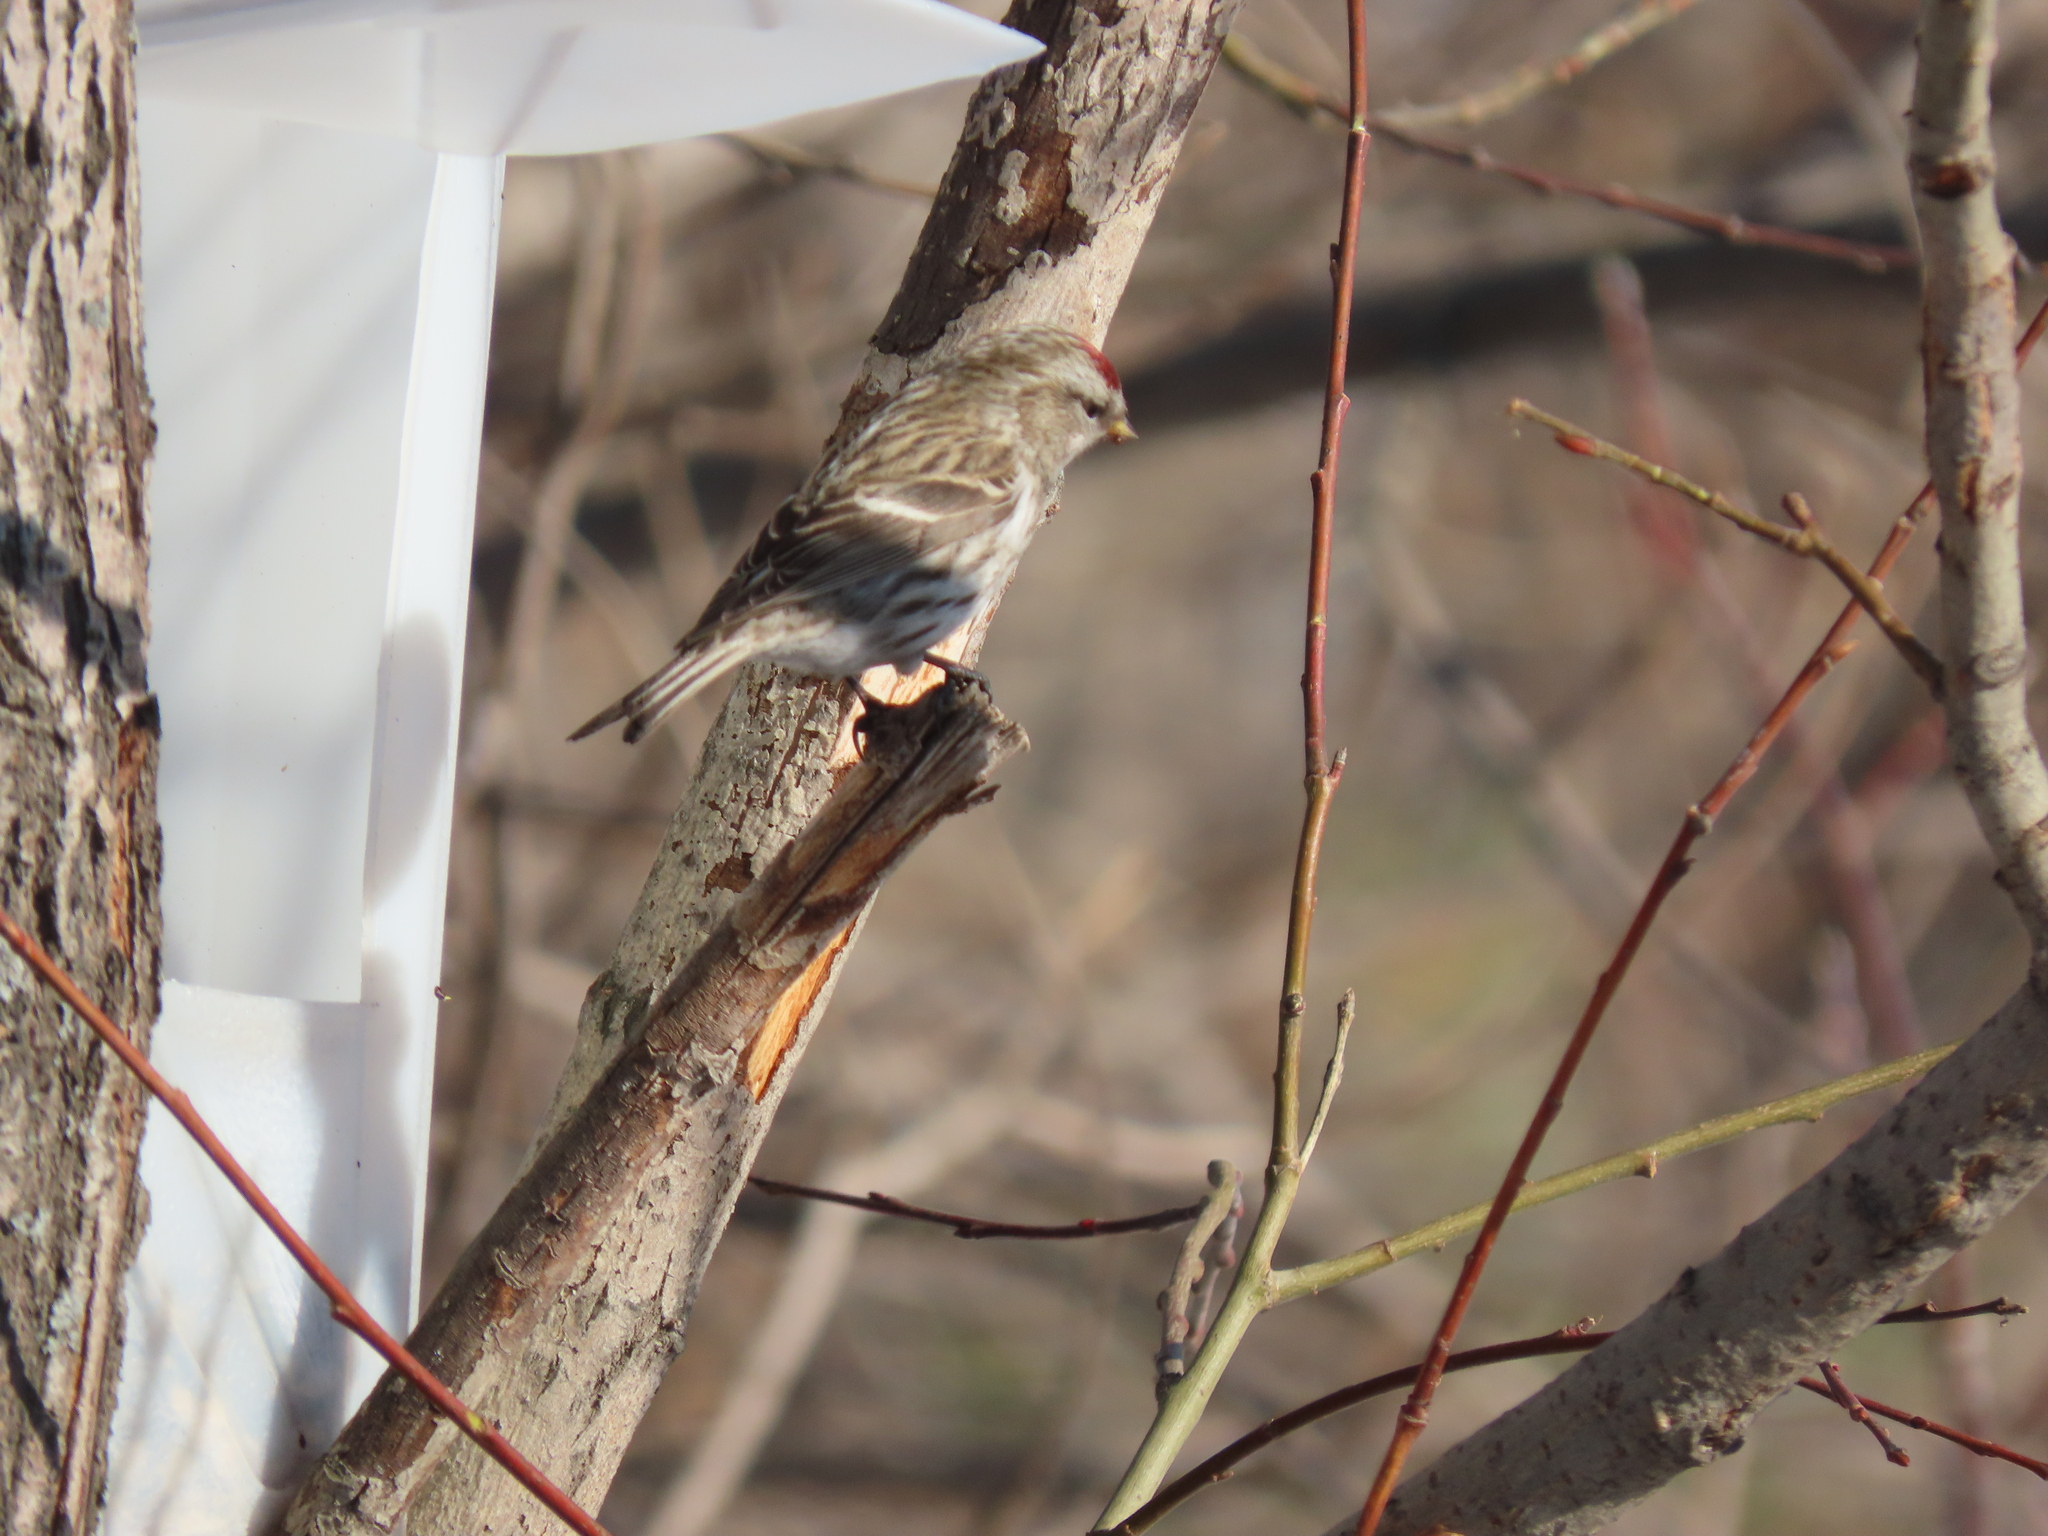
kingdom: Animalia
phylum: Chordata
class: Aves
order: Passeriformes
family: Fringillidae
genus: Acanthis
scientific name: Acanthis flammea
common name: Common redpoll
